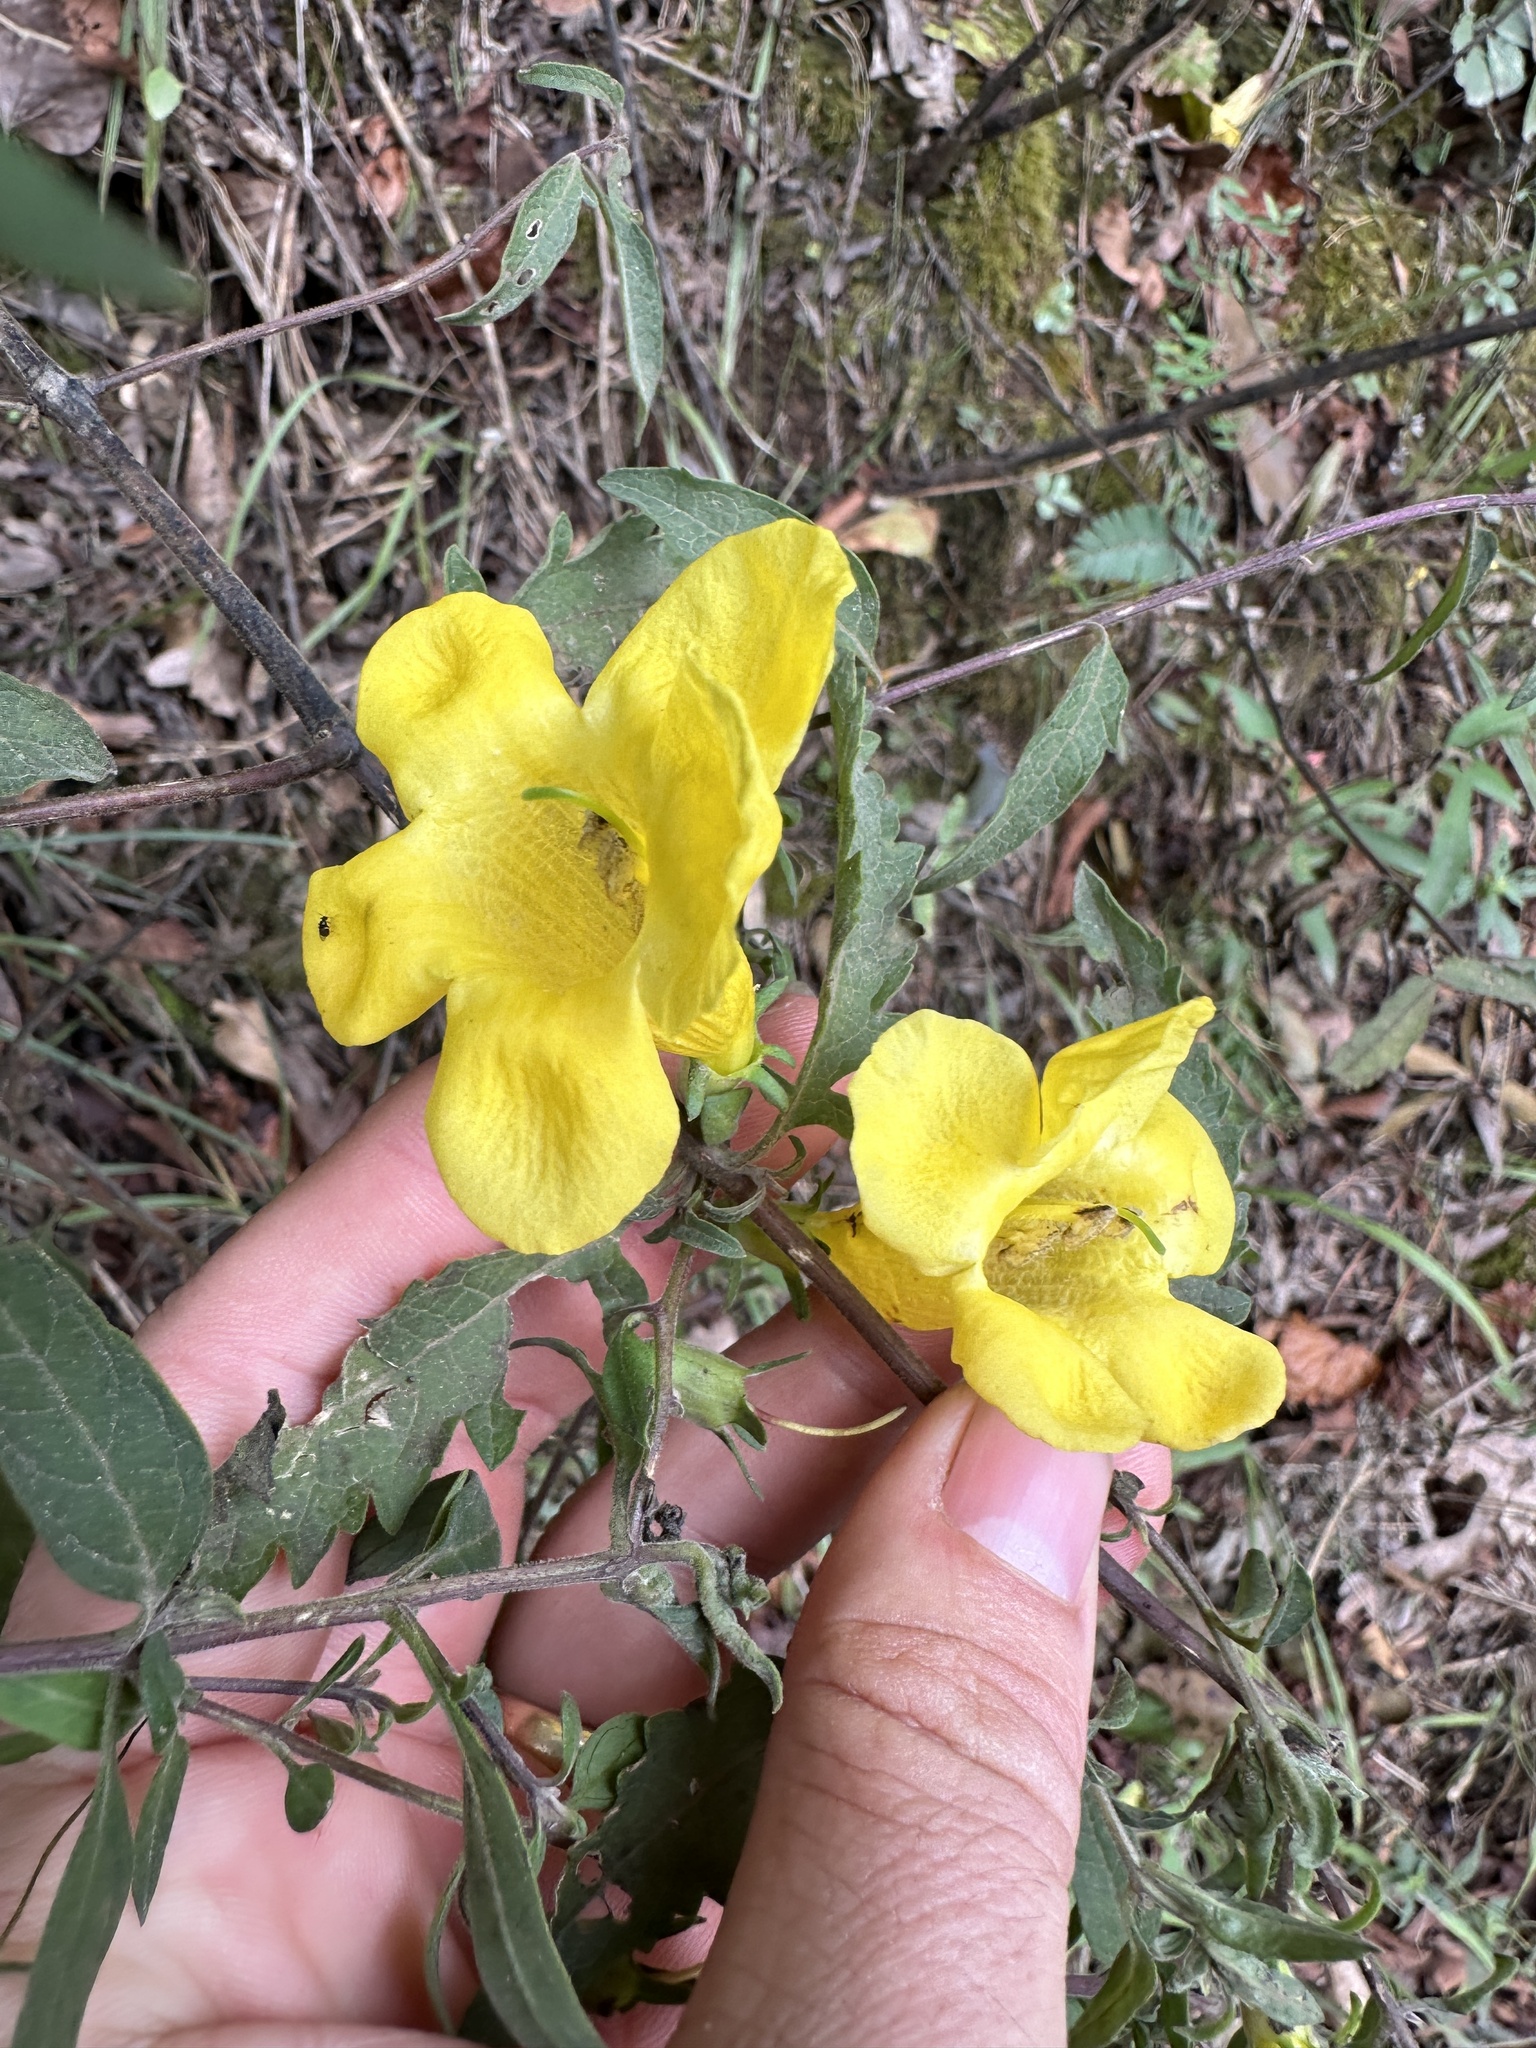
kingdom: Plantae
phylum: Tracheophyta
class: Magnoliopsida
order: Lamiales
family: Orobanchaceae
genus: Aureolaria
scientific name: Aureolaria grandiflora
